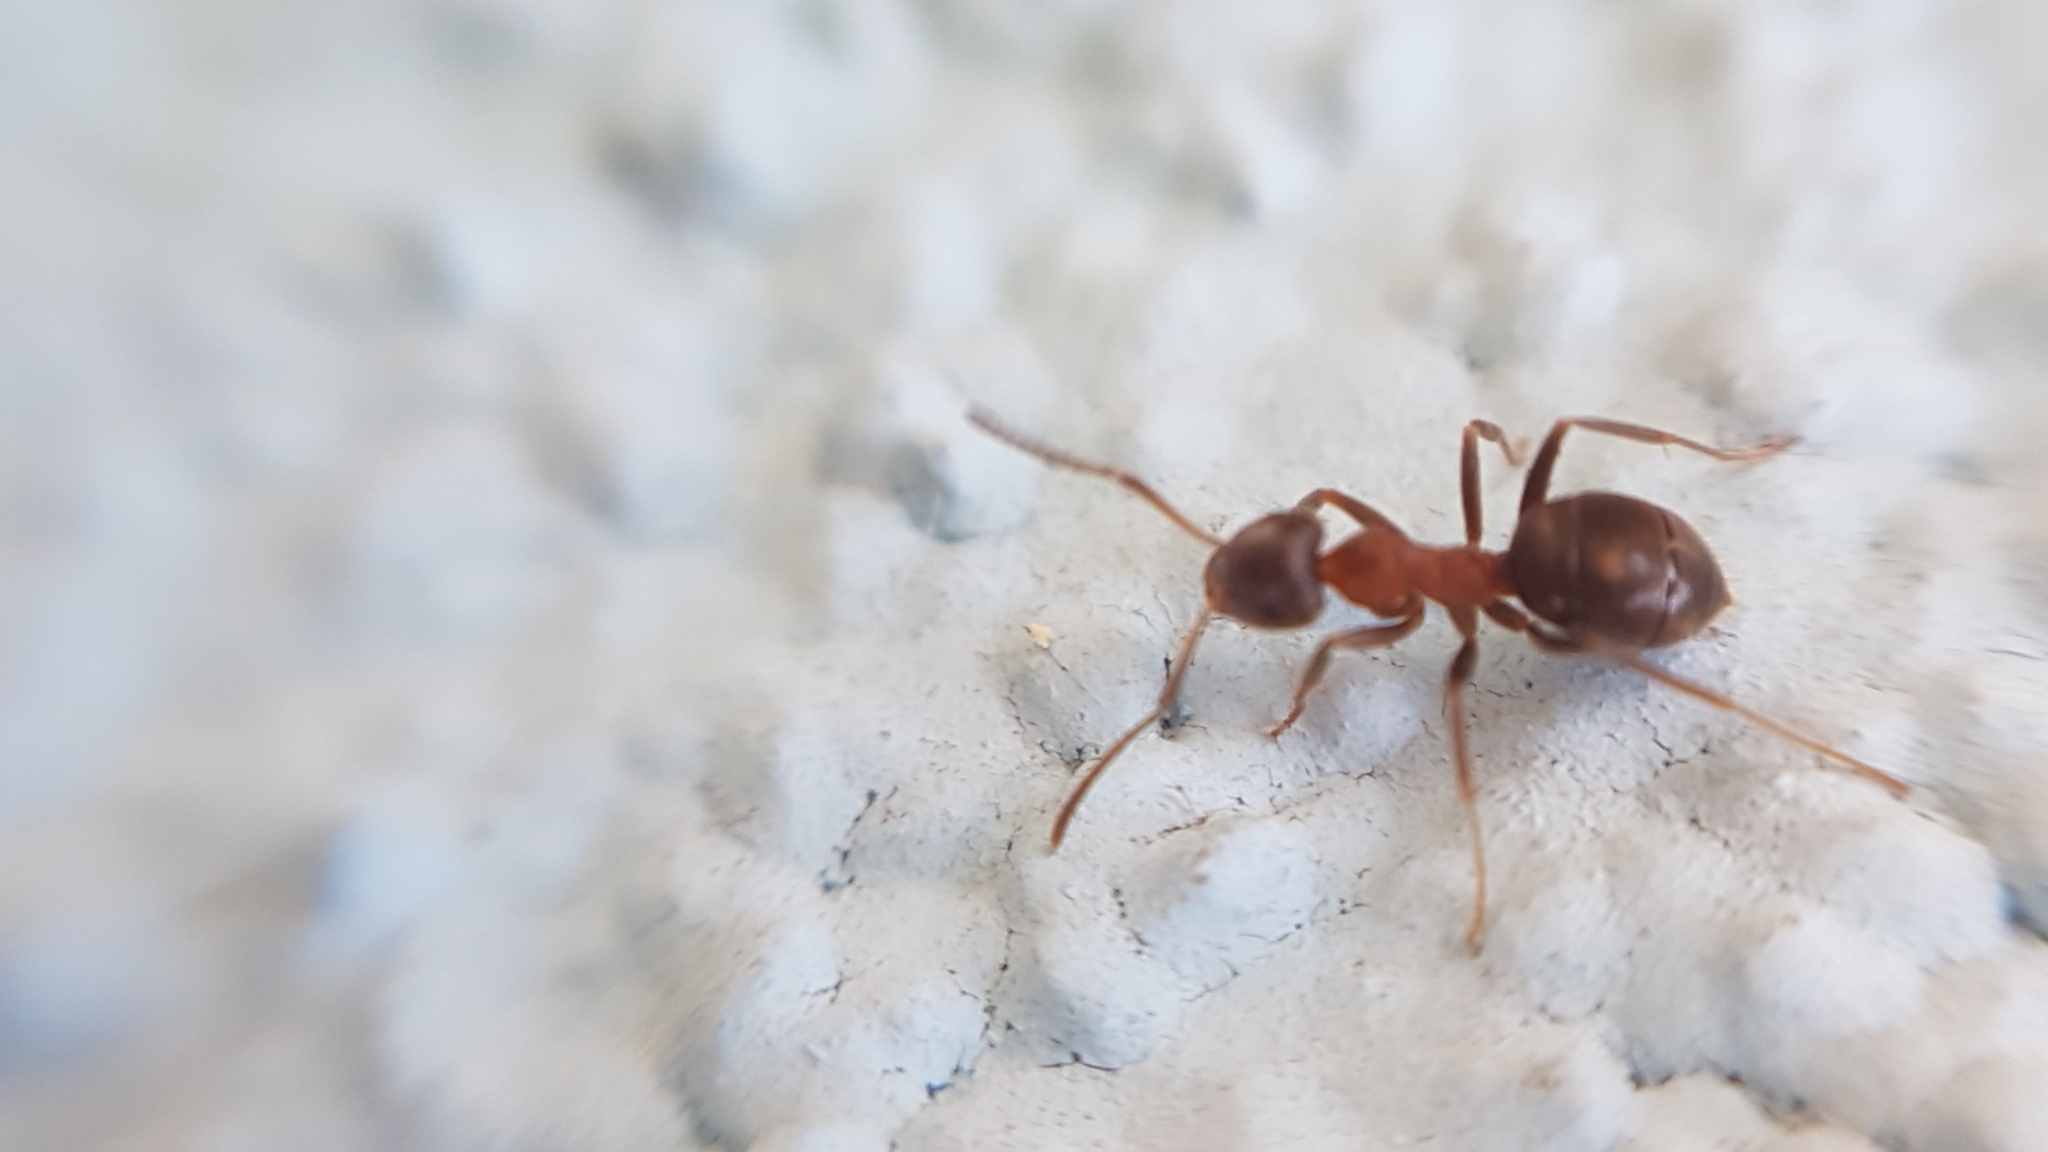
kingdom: Animalia
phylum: Arthropoda
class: Insecta
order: Hymenoptera
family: Formicidae
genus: Lasius
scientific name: Lasius emarginatus
